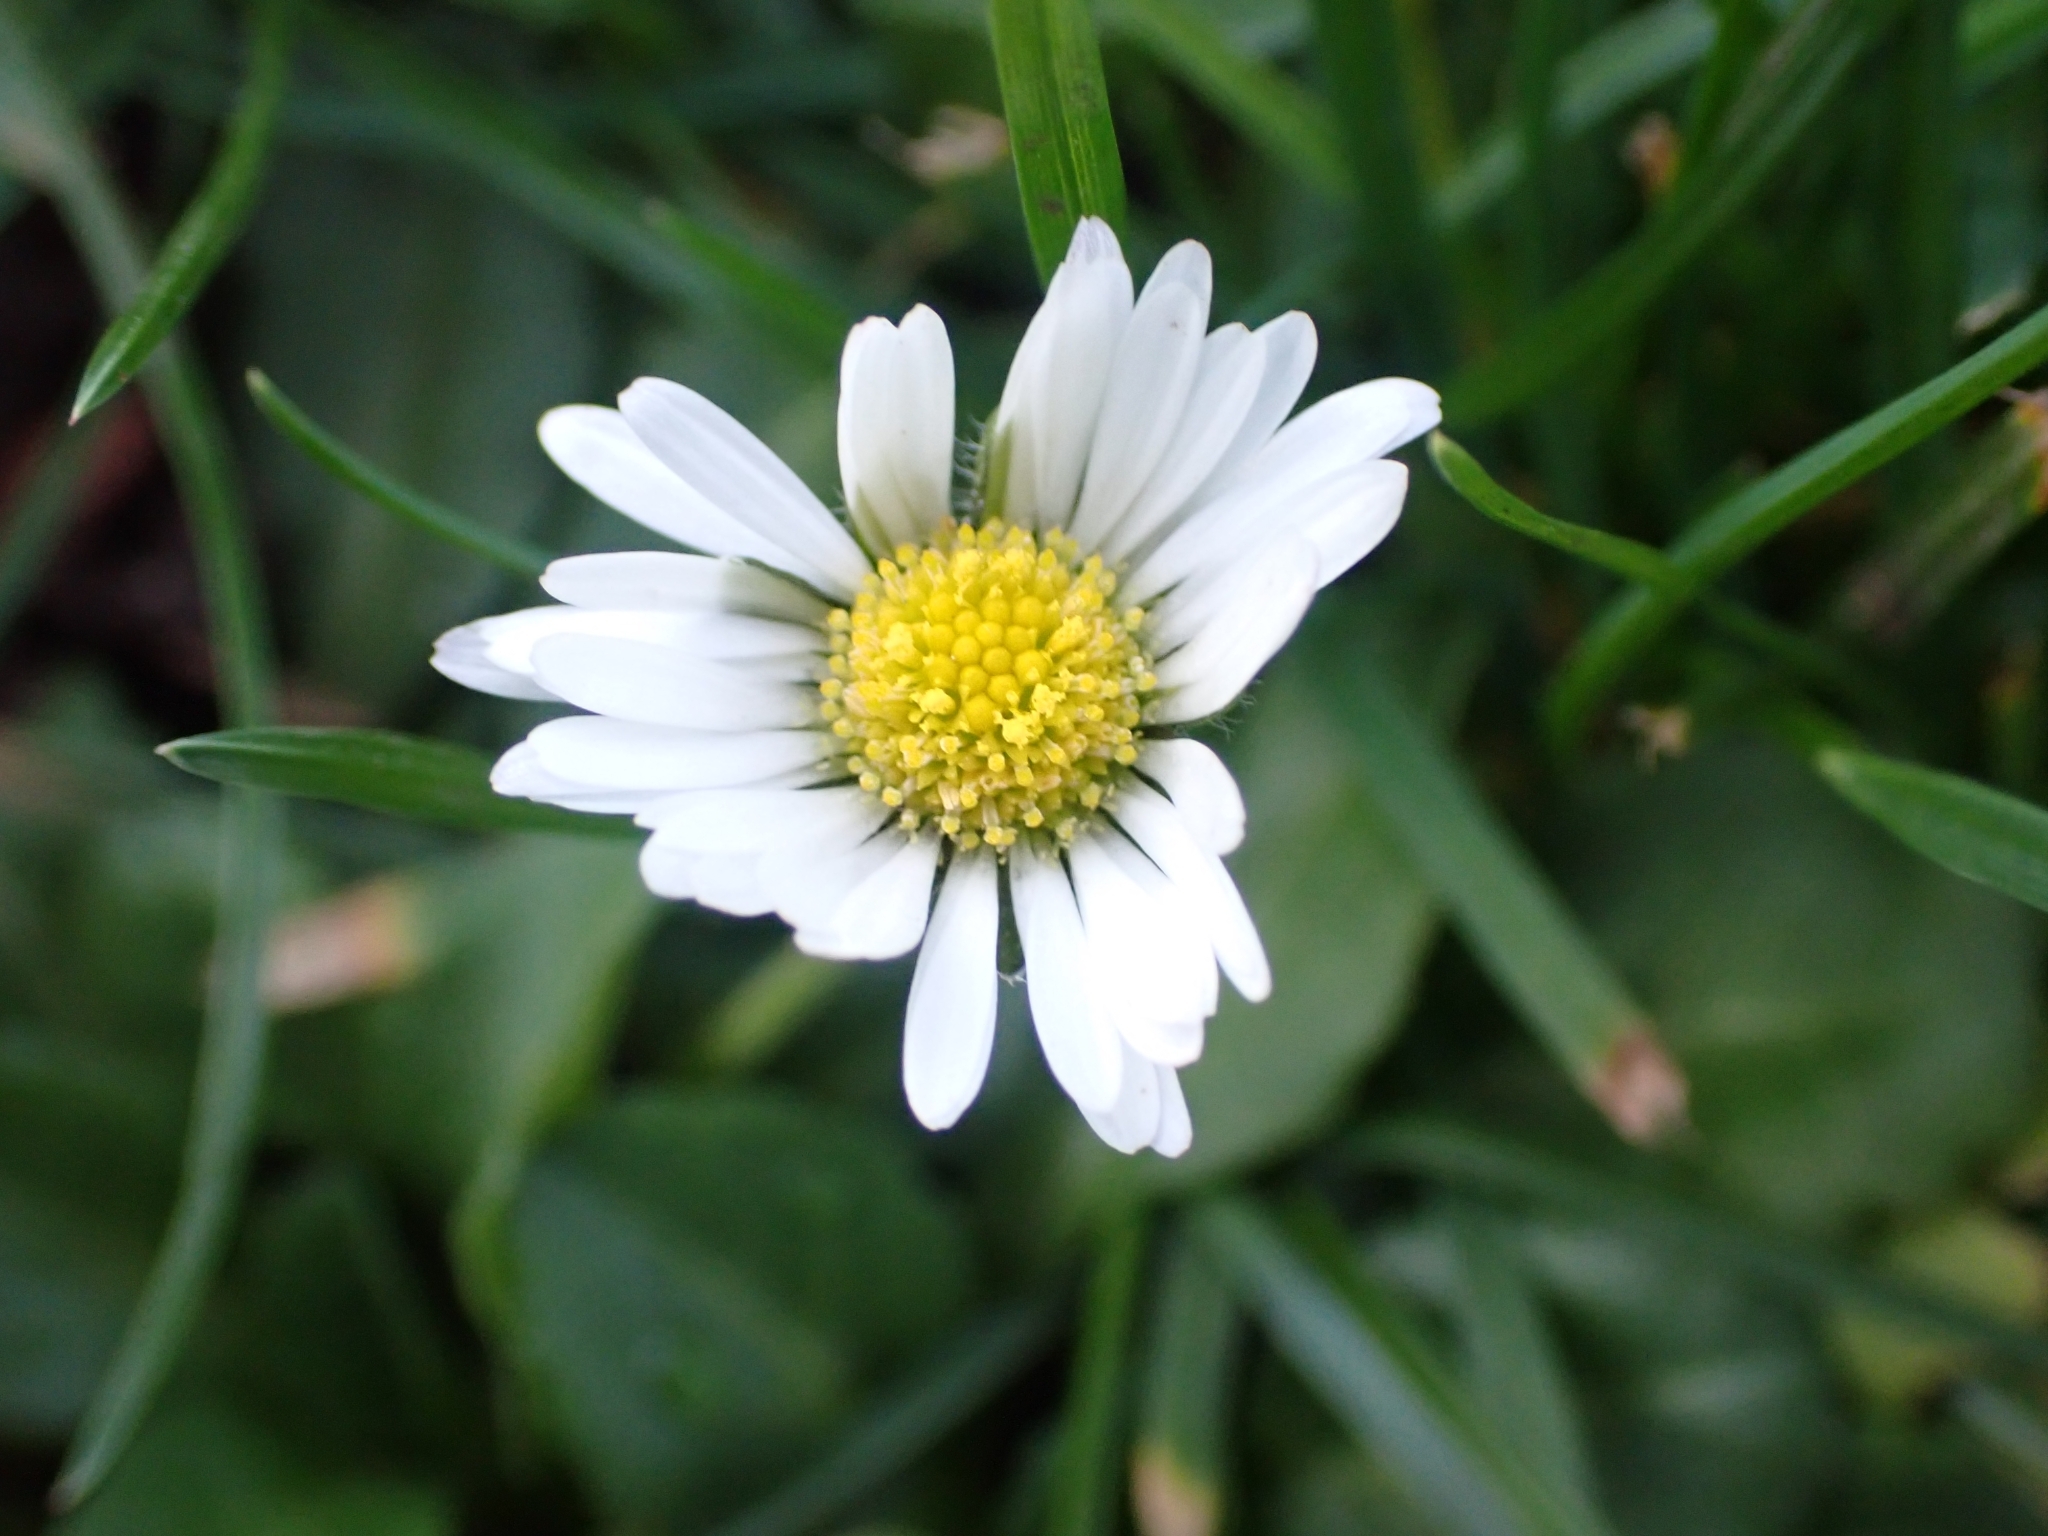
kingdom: Plantae
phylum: Tracheophyta
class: Magnoliopsida
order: Asterales
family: Asteraceae
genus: Bellis
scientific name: Bellis perennis
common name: Lawndaisy
